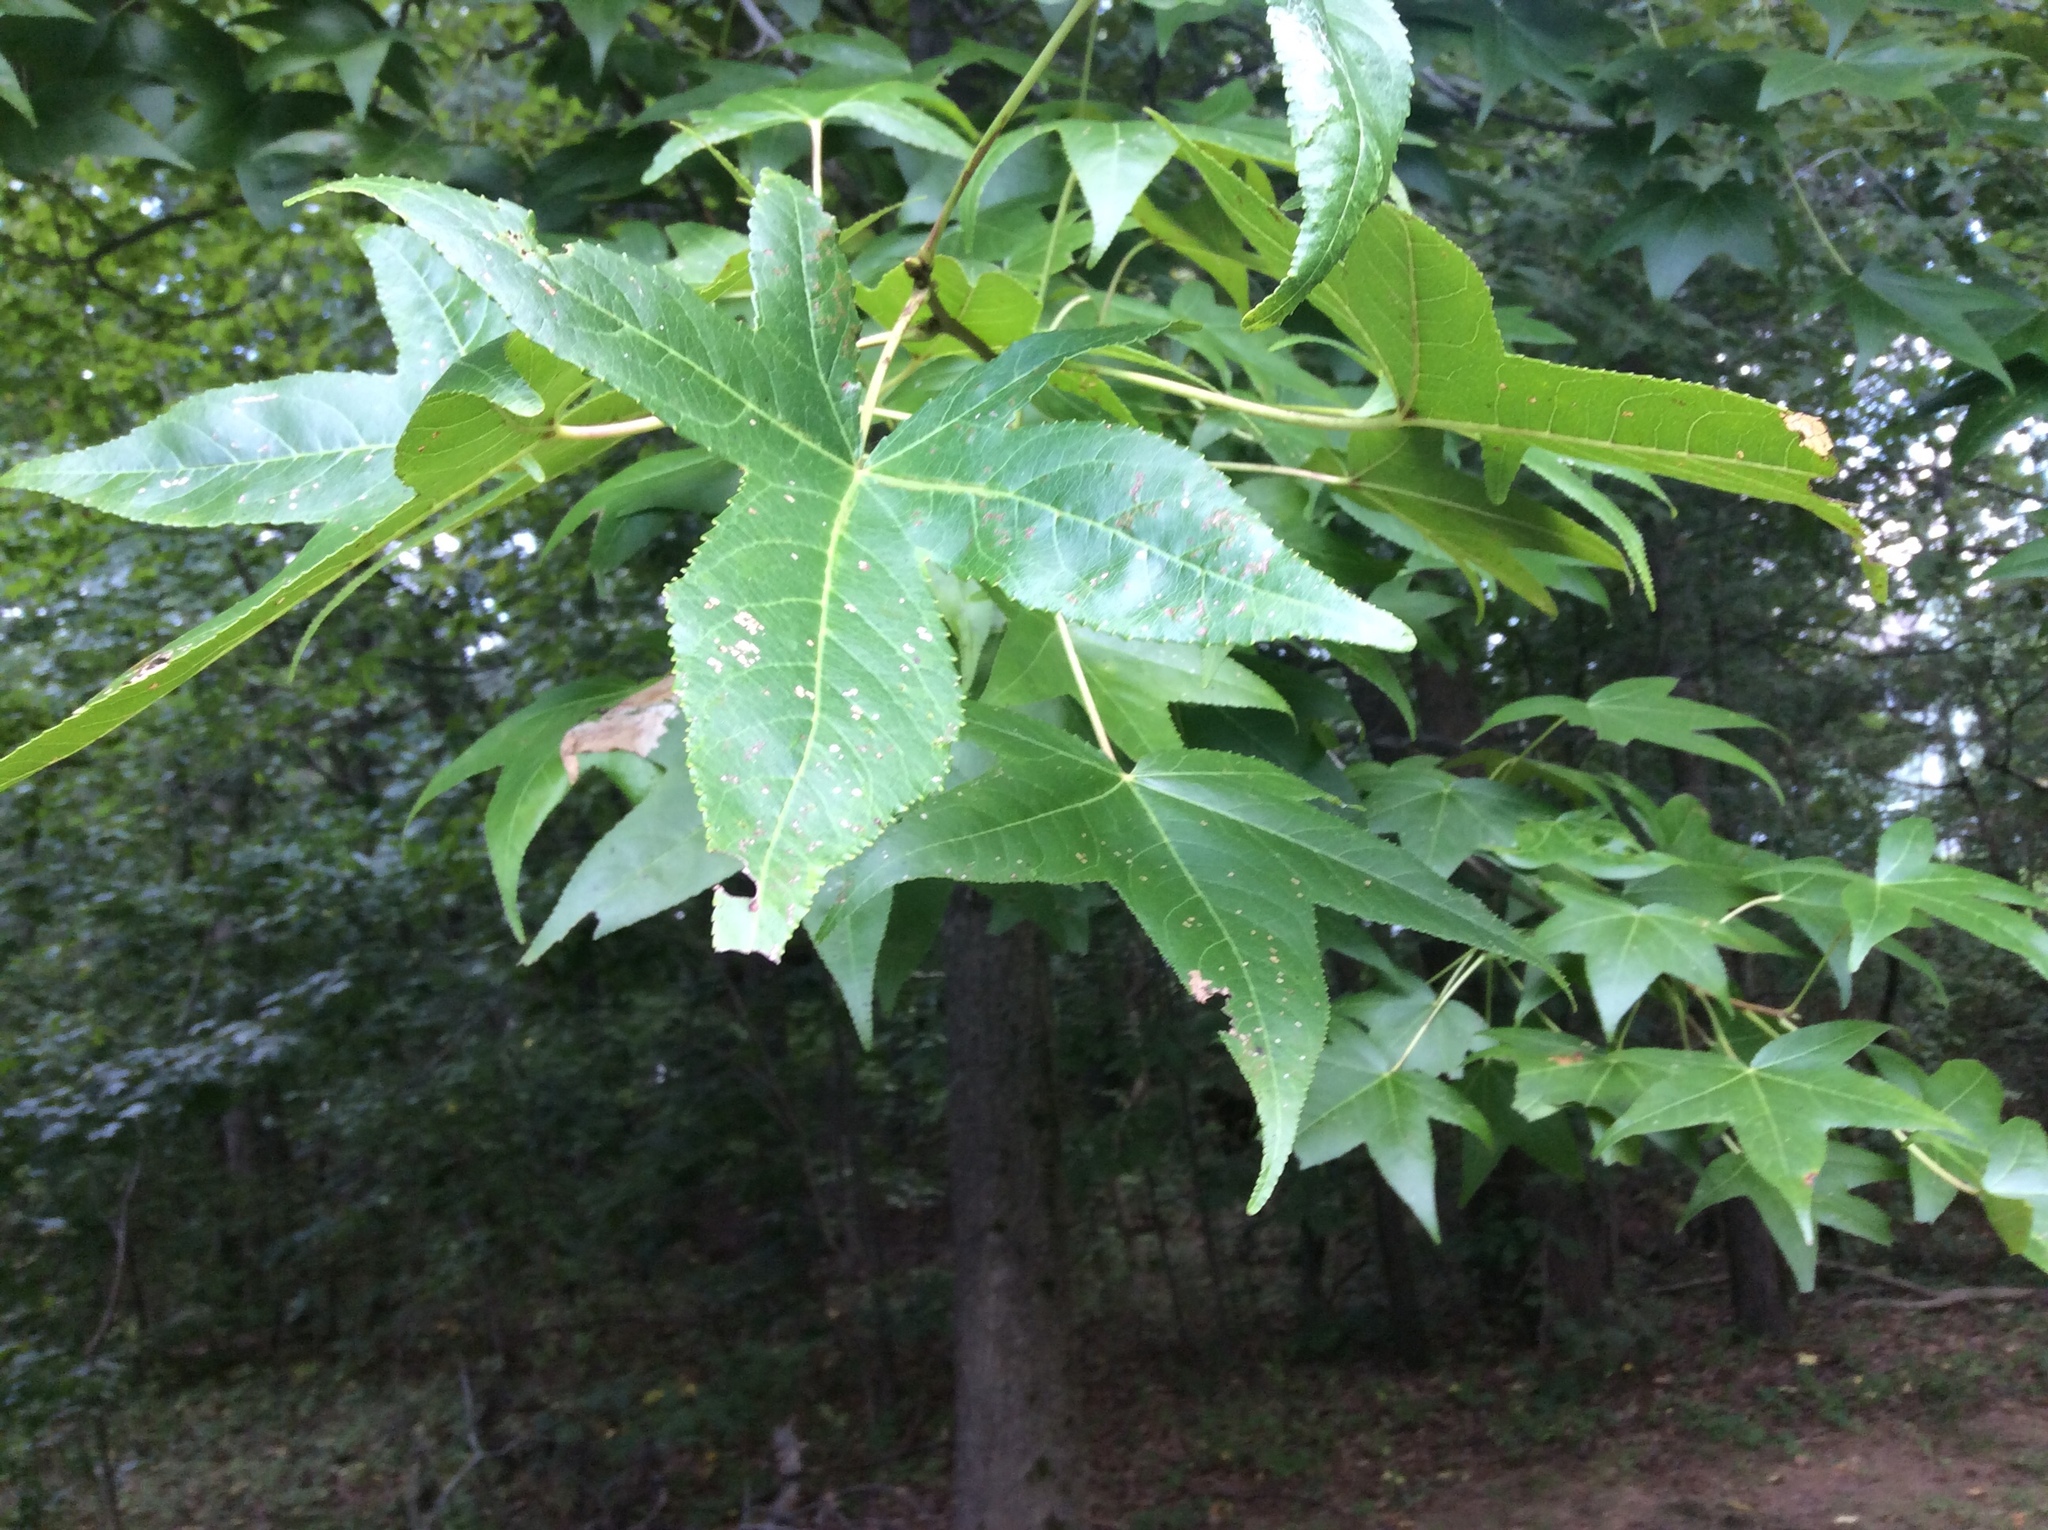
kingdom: Plantae
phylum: Tracheophyta
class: Magnoliopsida
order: Saxifragales
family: Altingiaceae
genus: Liquidambar
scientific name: Liquidambar styraciflua
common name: Sweet gum
